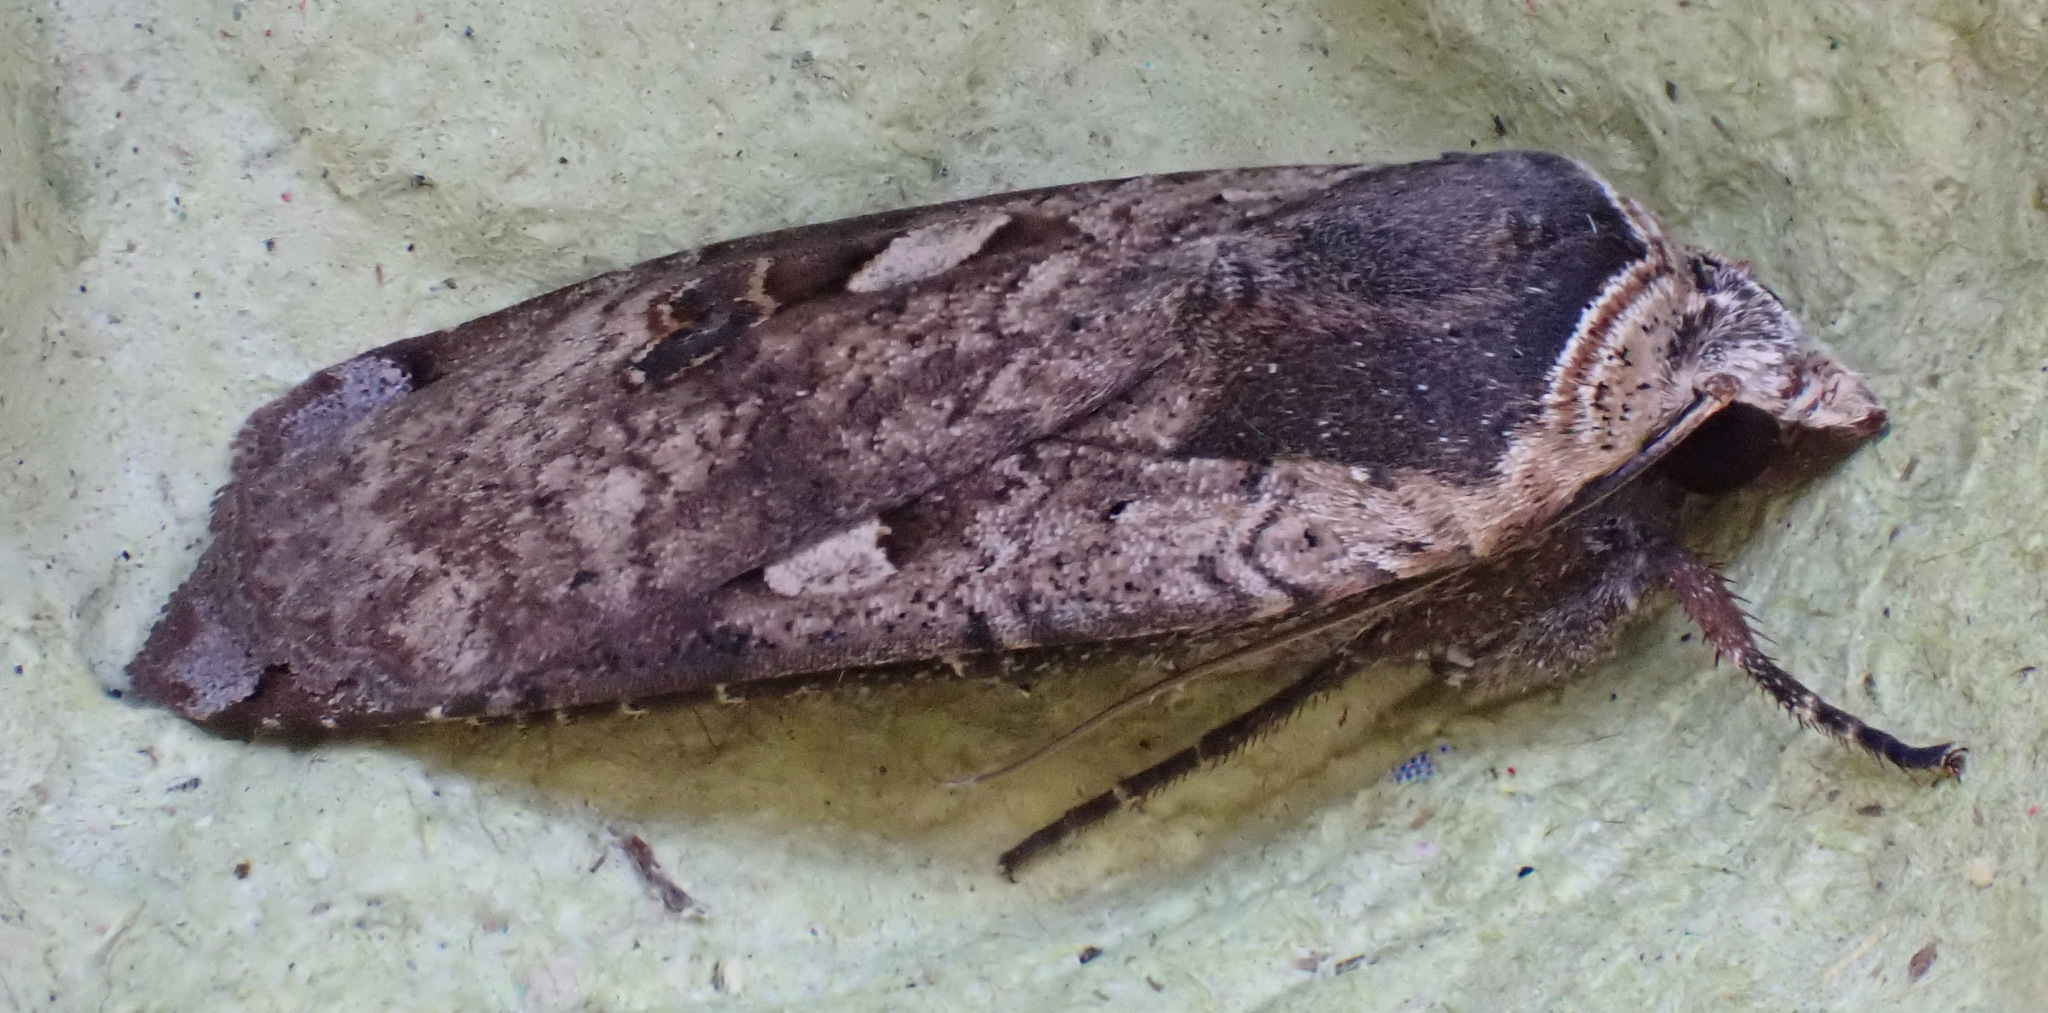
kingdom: Animalia
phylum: Arthropoda
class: Insecta
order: Lepidoptera
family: Noctuidae
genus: Noctua
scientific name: Noctua pronuba
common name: Large yellow underwing
